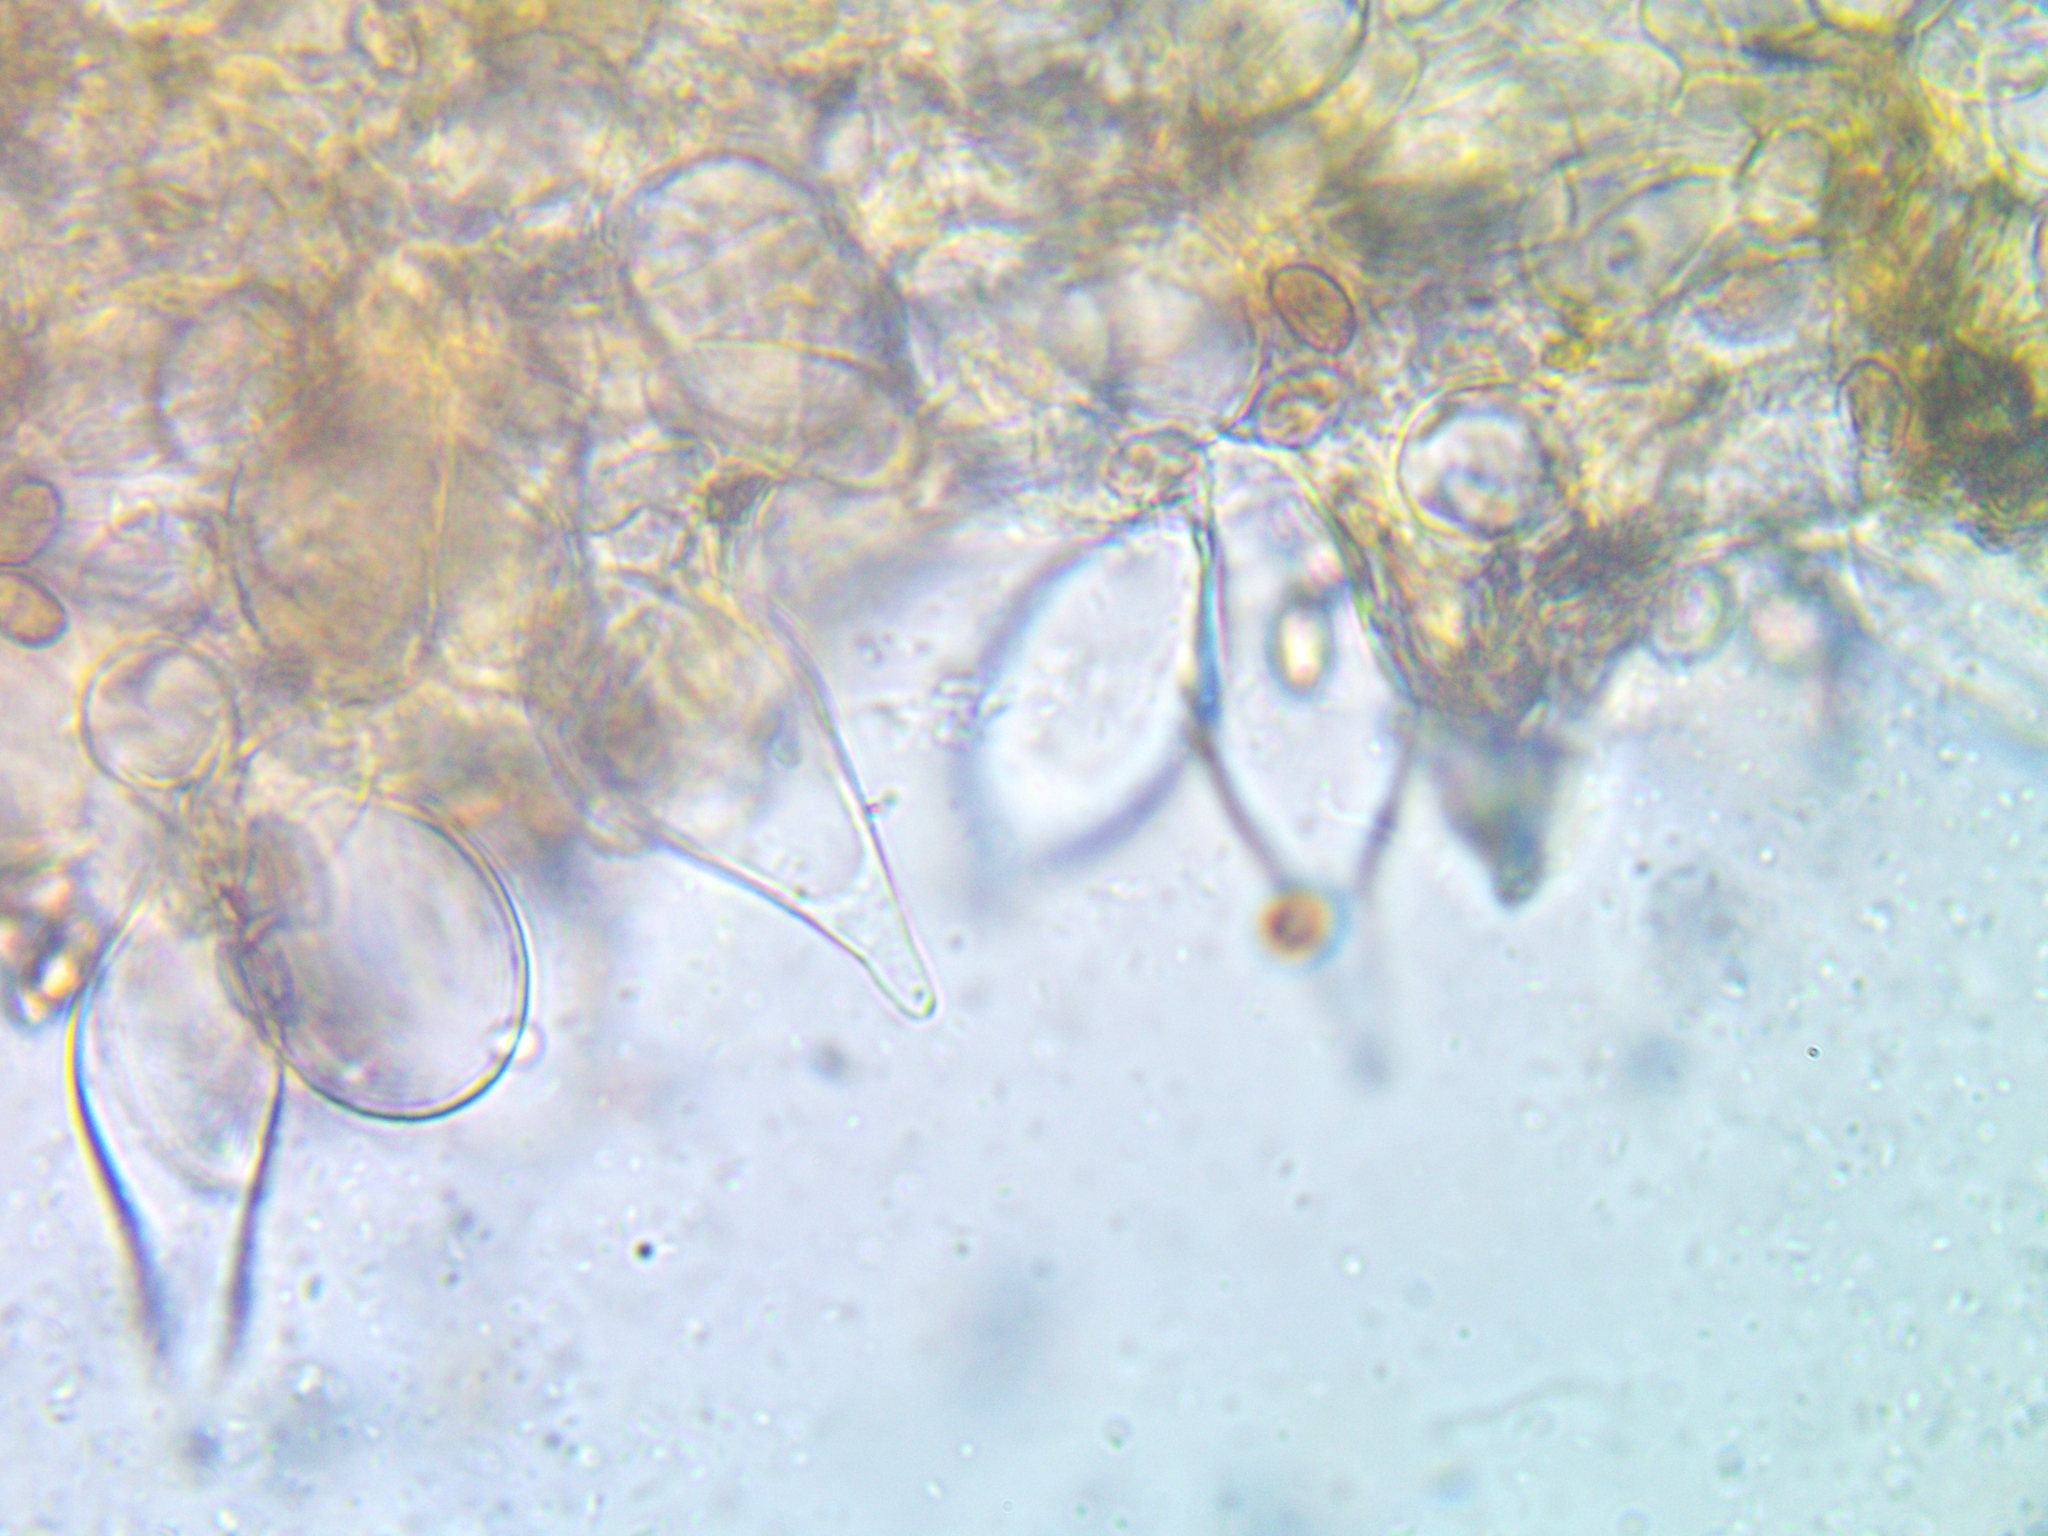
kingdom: Fungi
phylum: Basidiomycota
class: Agaricomycetes
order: Agaricales
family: Psathyrellaceae
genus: Homophron
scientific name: Homophron spadiceum
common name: Chestnut brittlestem
